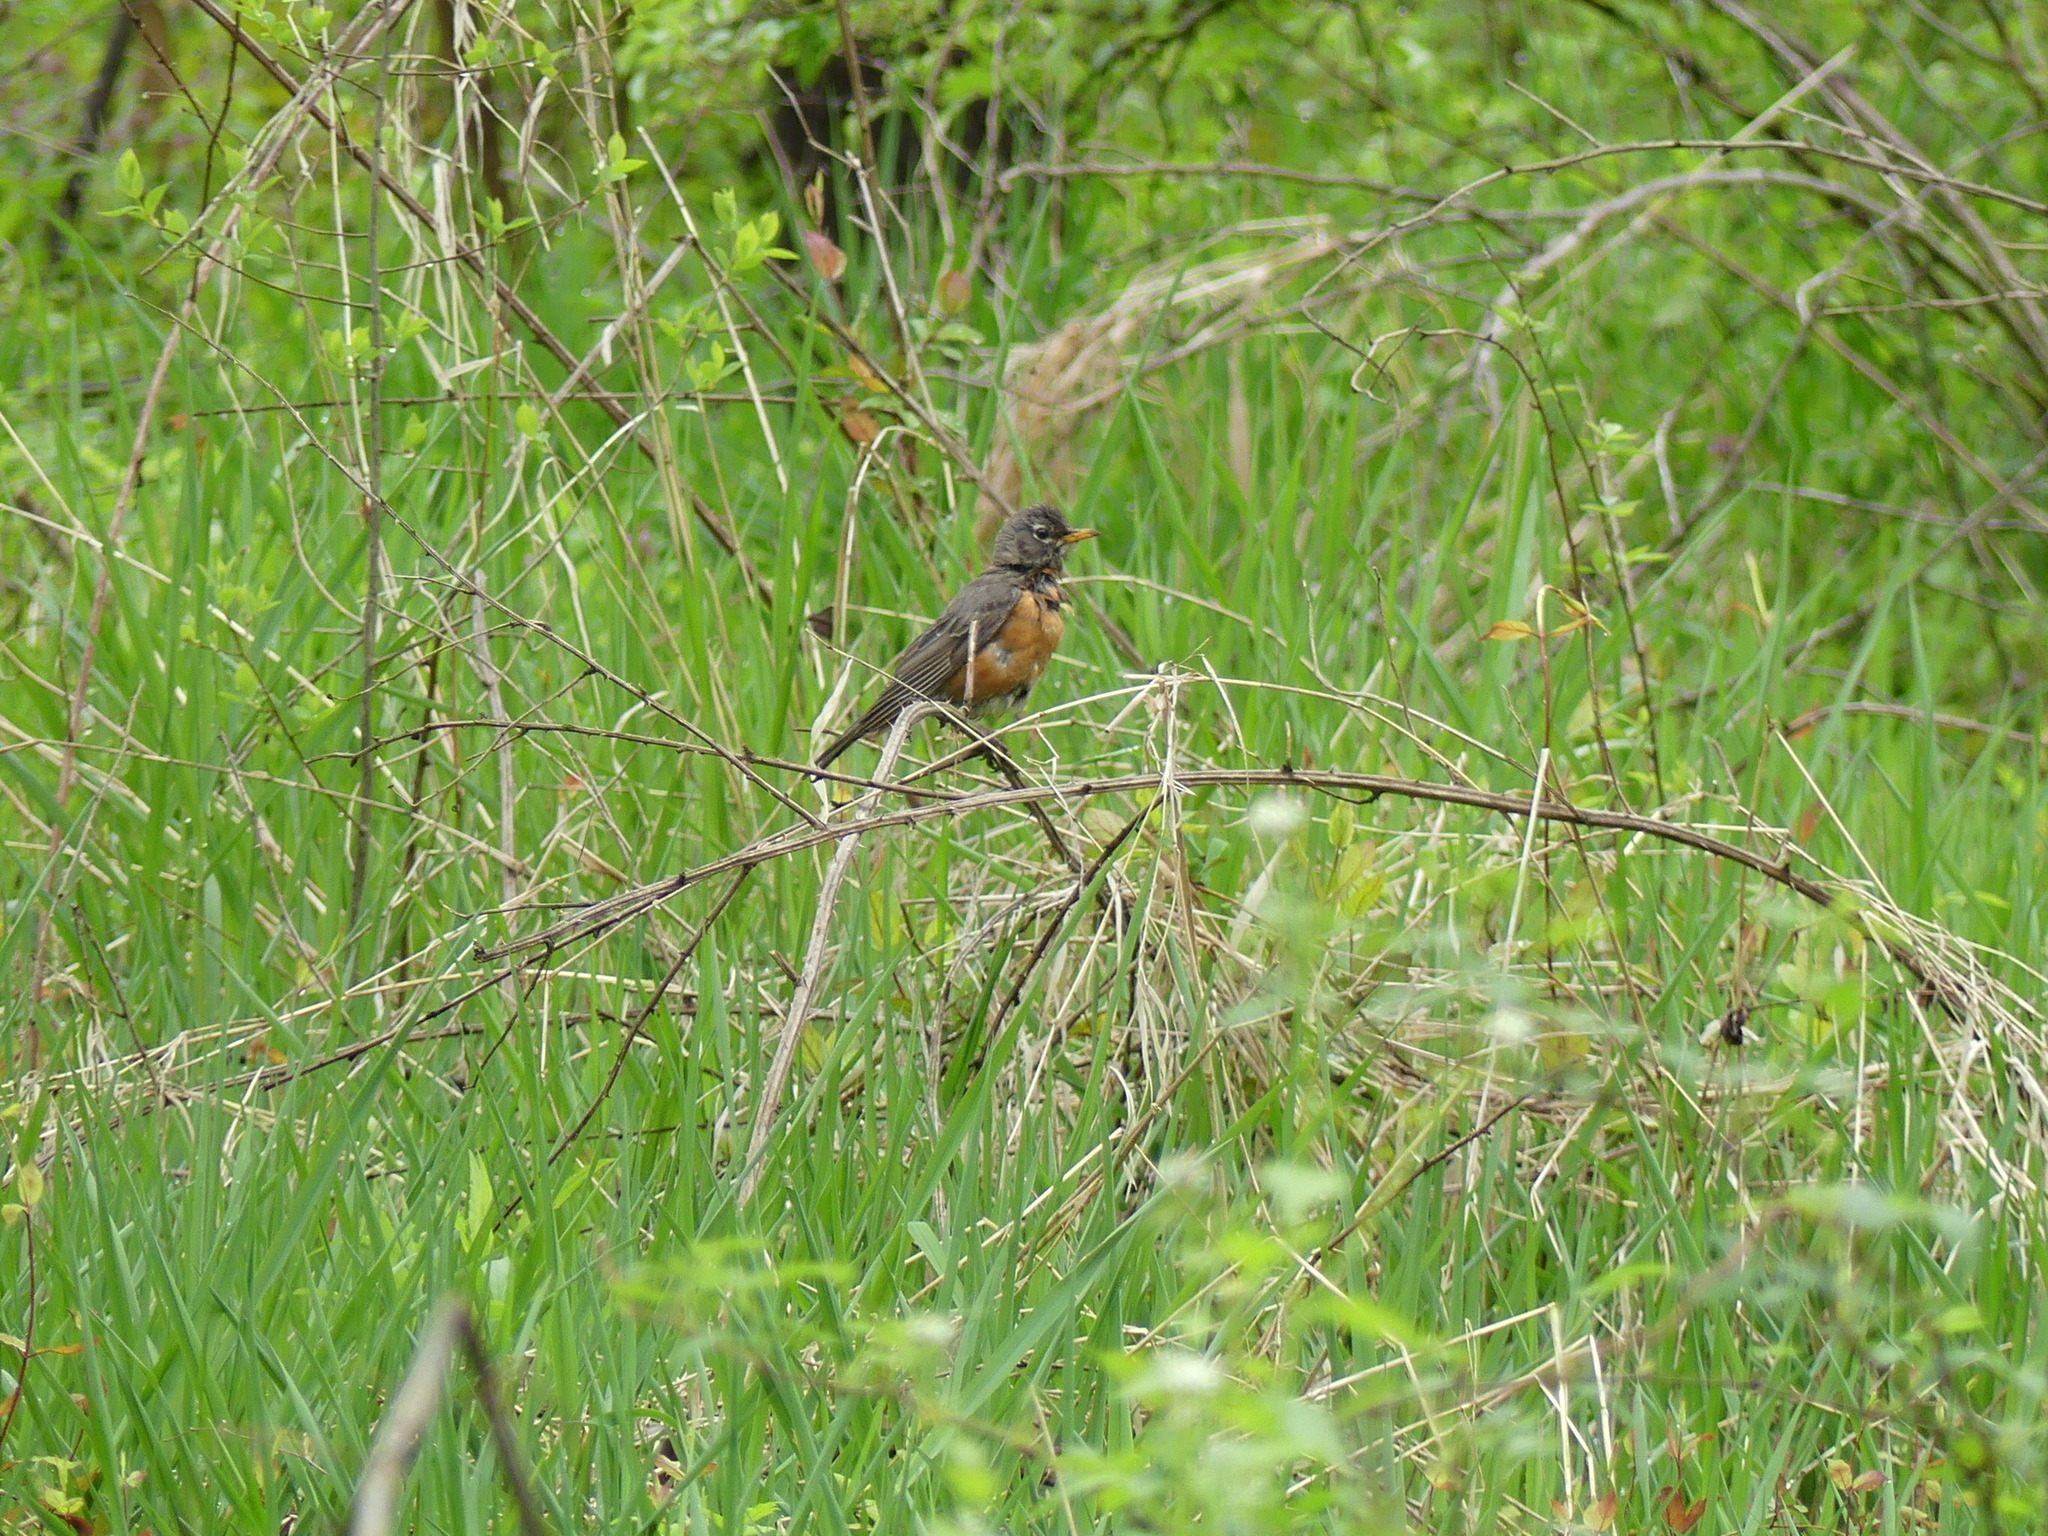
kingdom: Animalia
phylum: Chordata
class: Aves
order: Passeriformes
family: Turdidae
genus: Turdus
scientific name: Turdus migratorius
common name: American robin
